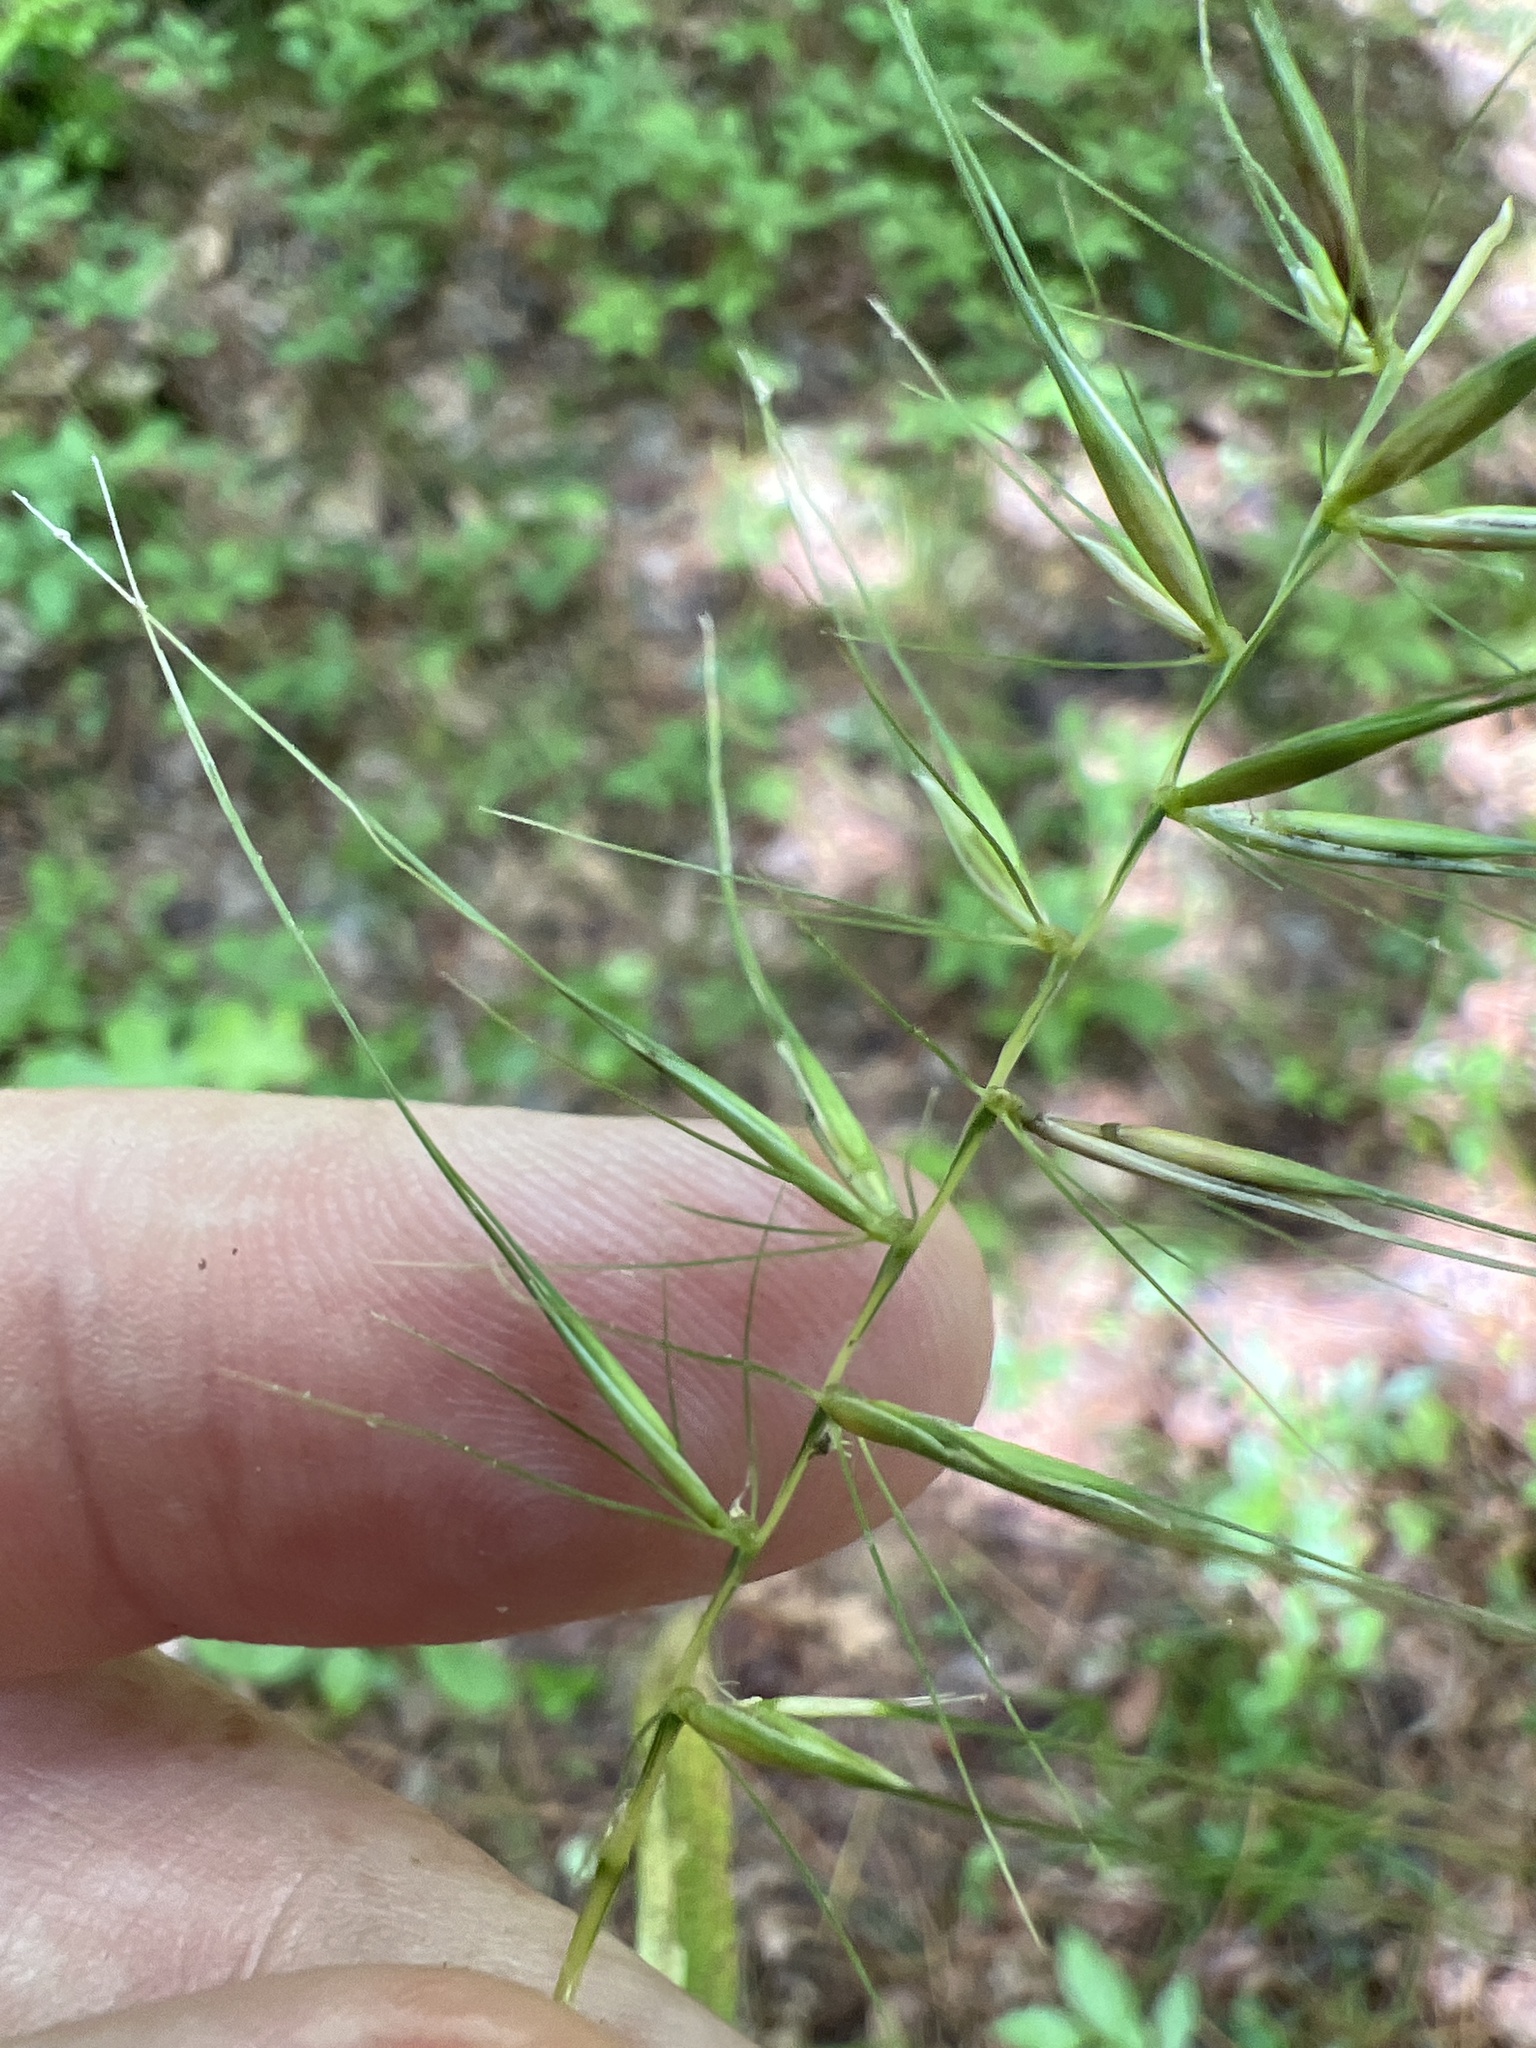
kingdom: Plantae
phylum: Tracheophyta
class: Liliopsida
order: Poales
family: Poaceae
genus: Elymus
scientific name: Elymus hystrix
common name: Bottlebrush grass
